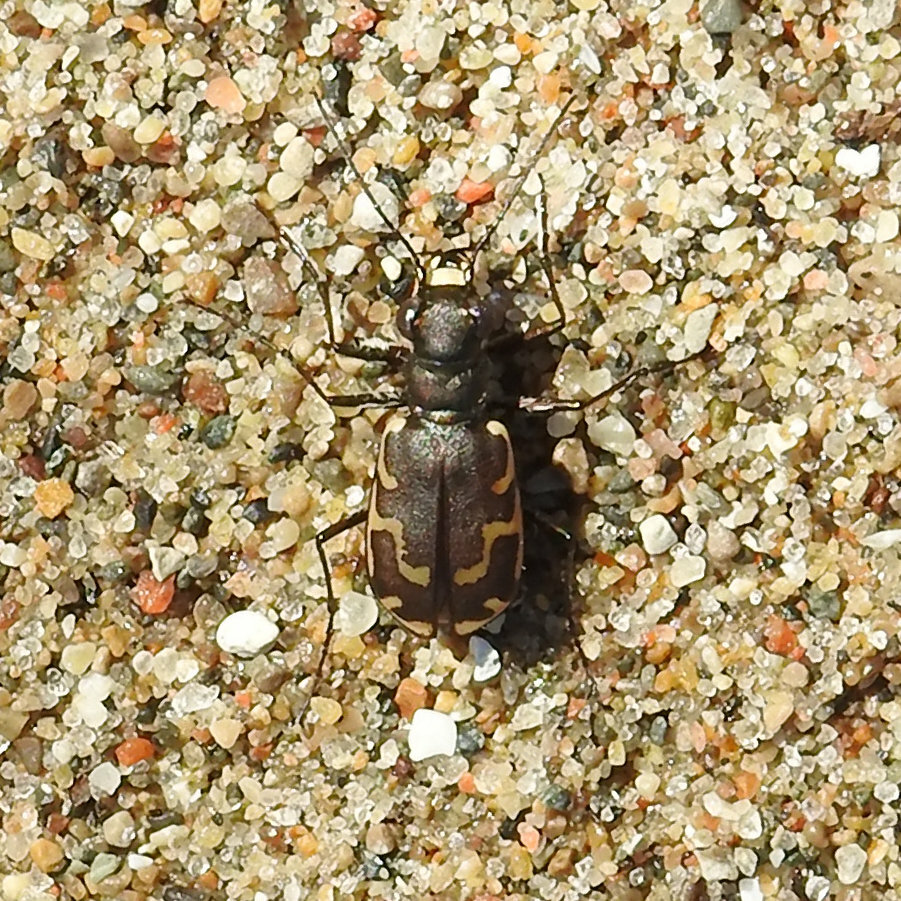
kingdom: Animalia
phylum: Arthropoda
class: Insecta
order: Coleoptera
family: Carabidae
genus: Cicindela
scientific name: Cicindela repanda
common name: Bronzed tiger beetle
